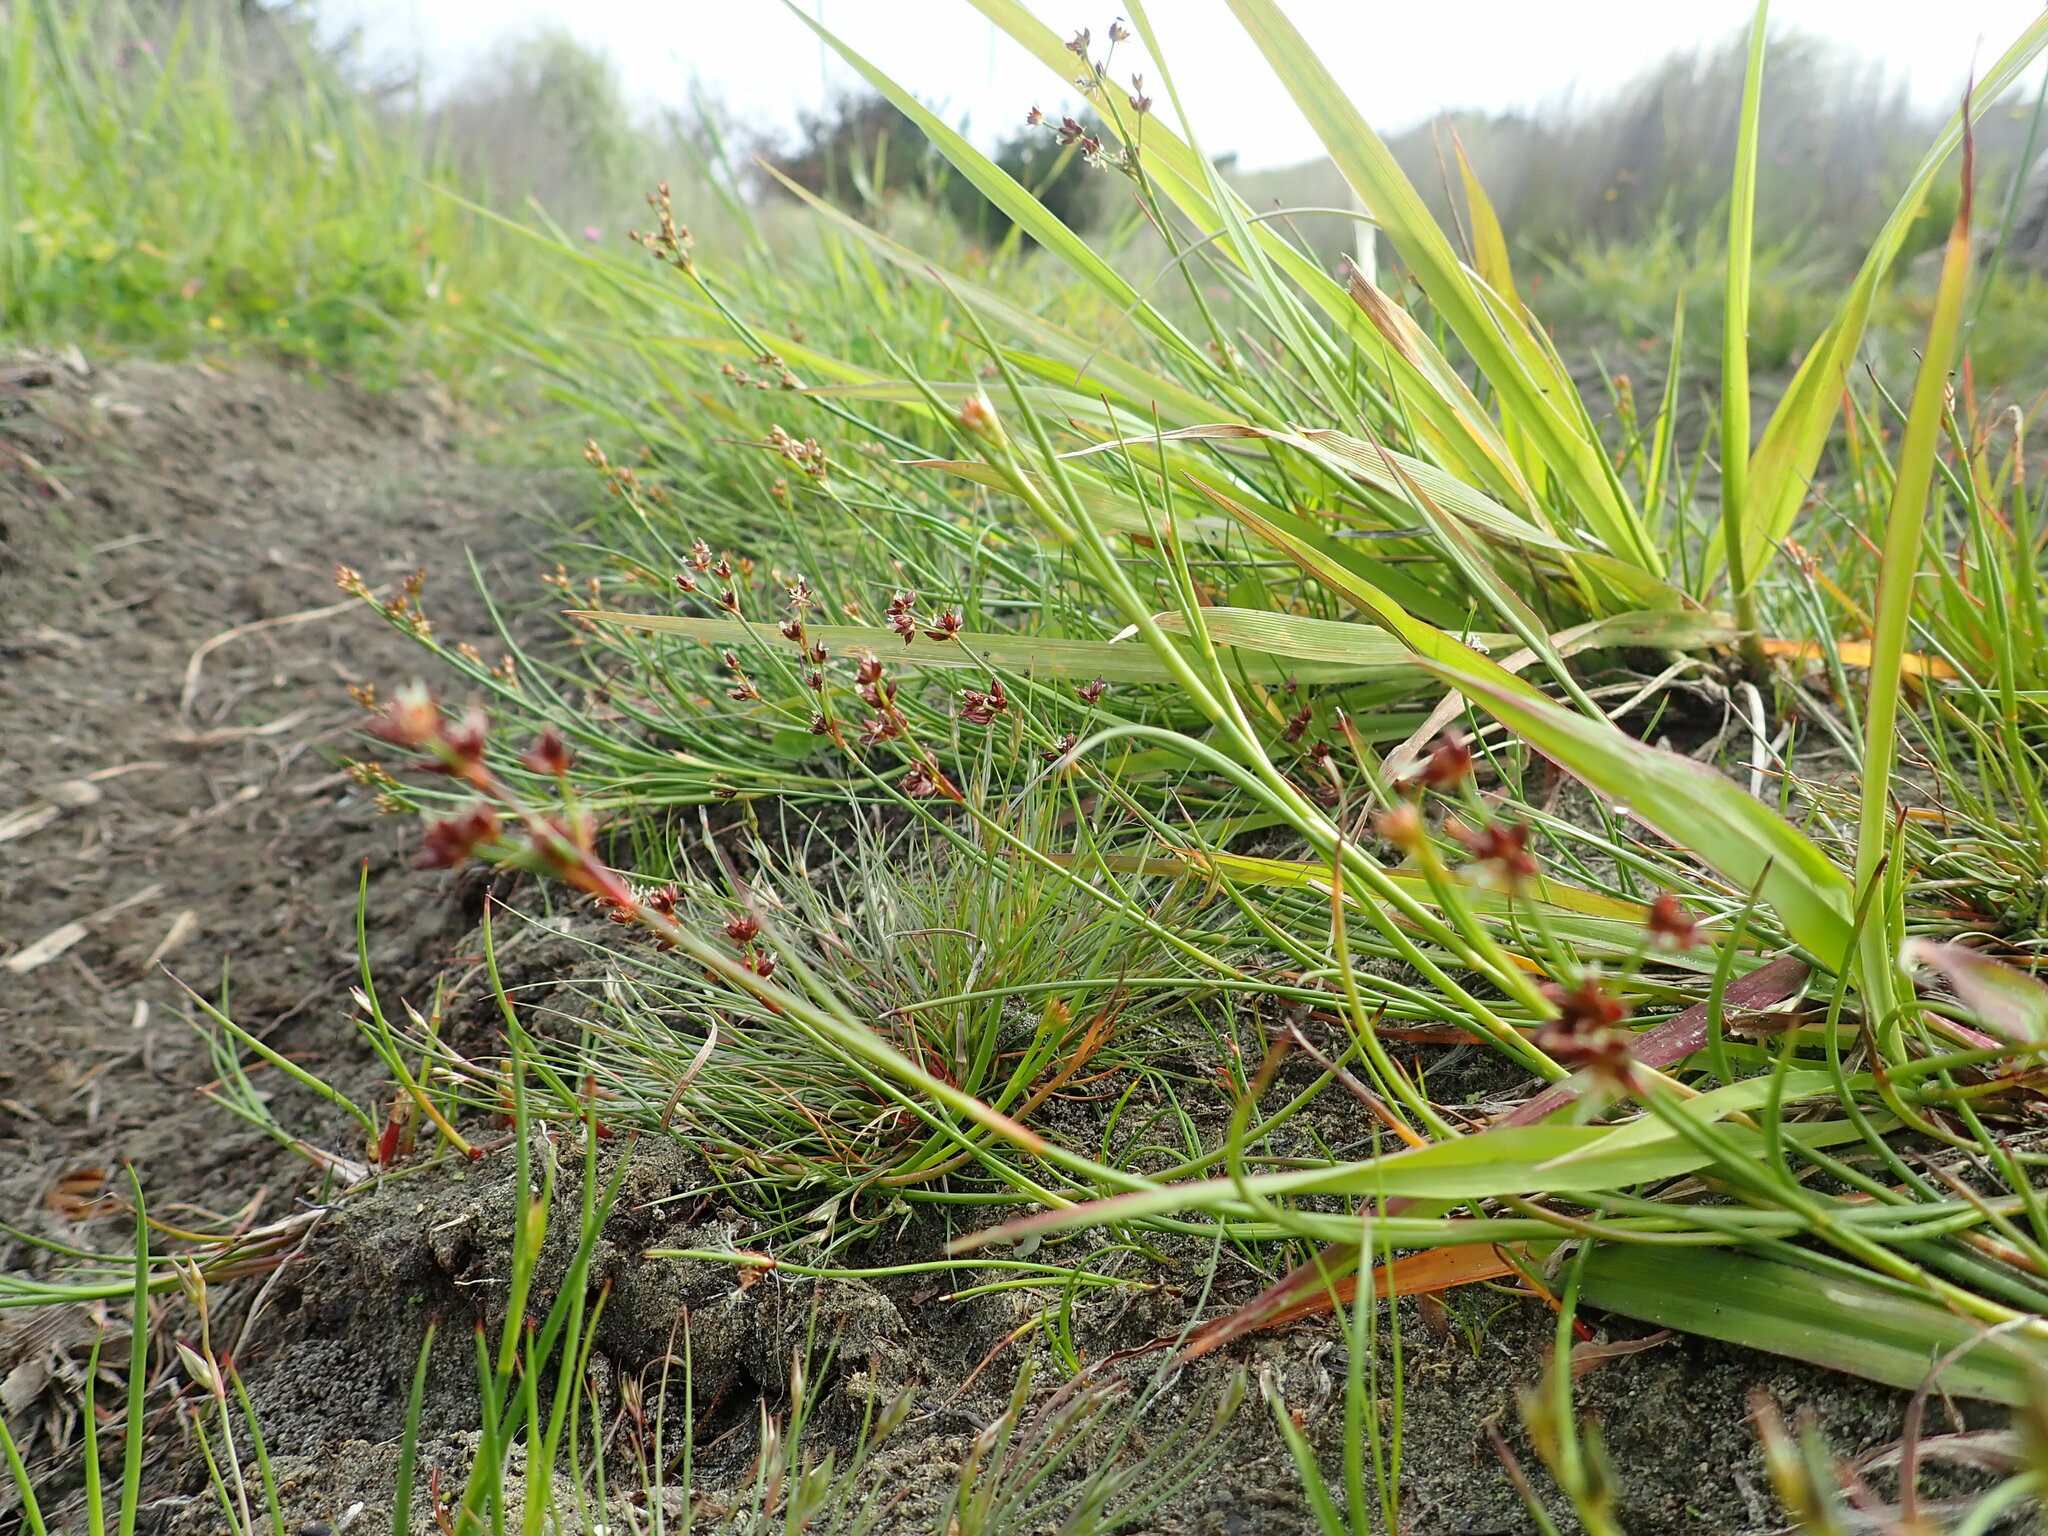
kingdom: Plantae
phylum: Tracheophyta
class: Liliopsida
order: Poales
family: Juncaceae
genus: Juncus
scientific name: Juncus articulatus
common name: Jointed rush
